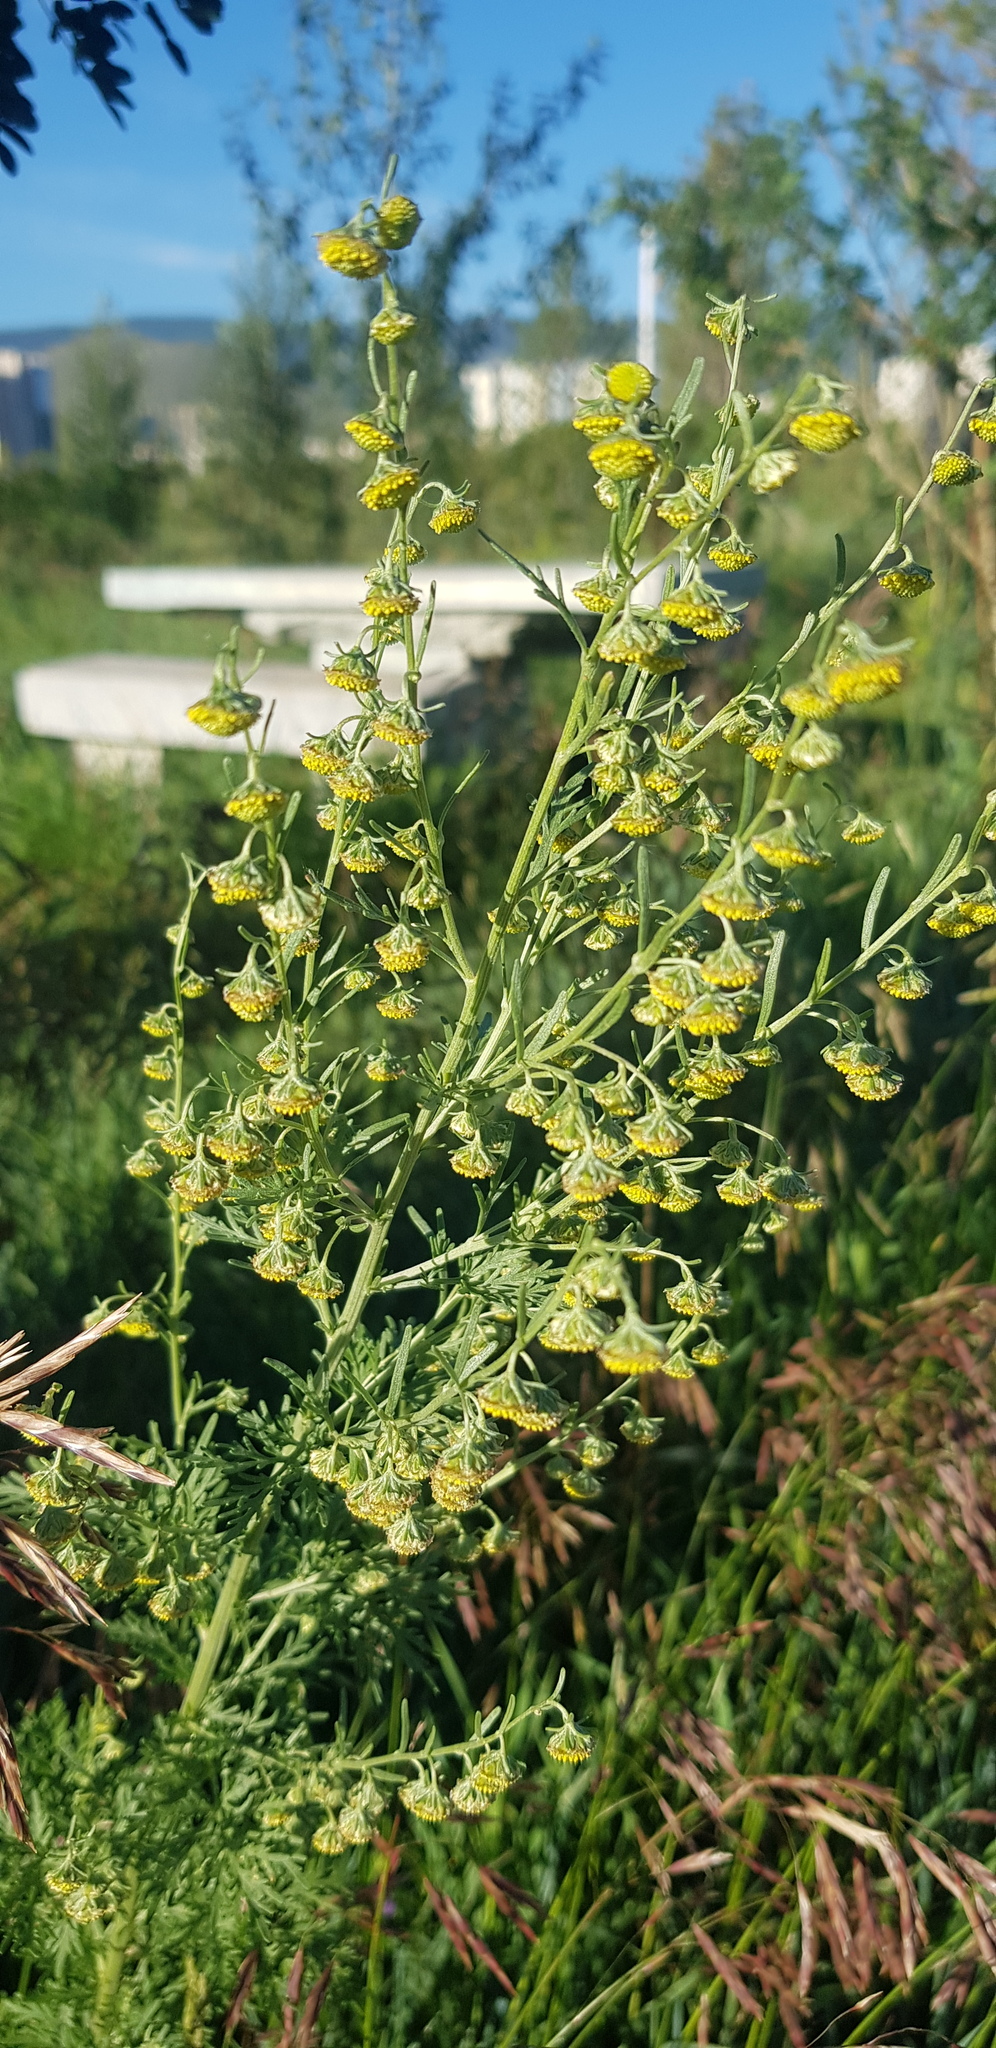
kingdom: Plantae
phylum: Tracheophyta
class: Magnoliopsida
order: Asterales
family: Asteraceae
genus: Artemisia
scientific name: Artemisia macrocephala
